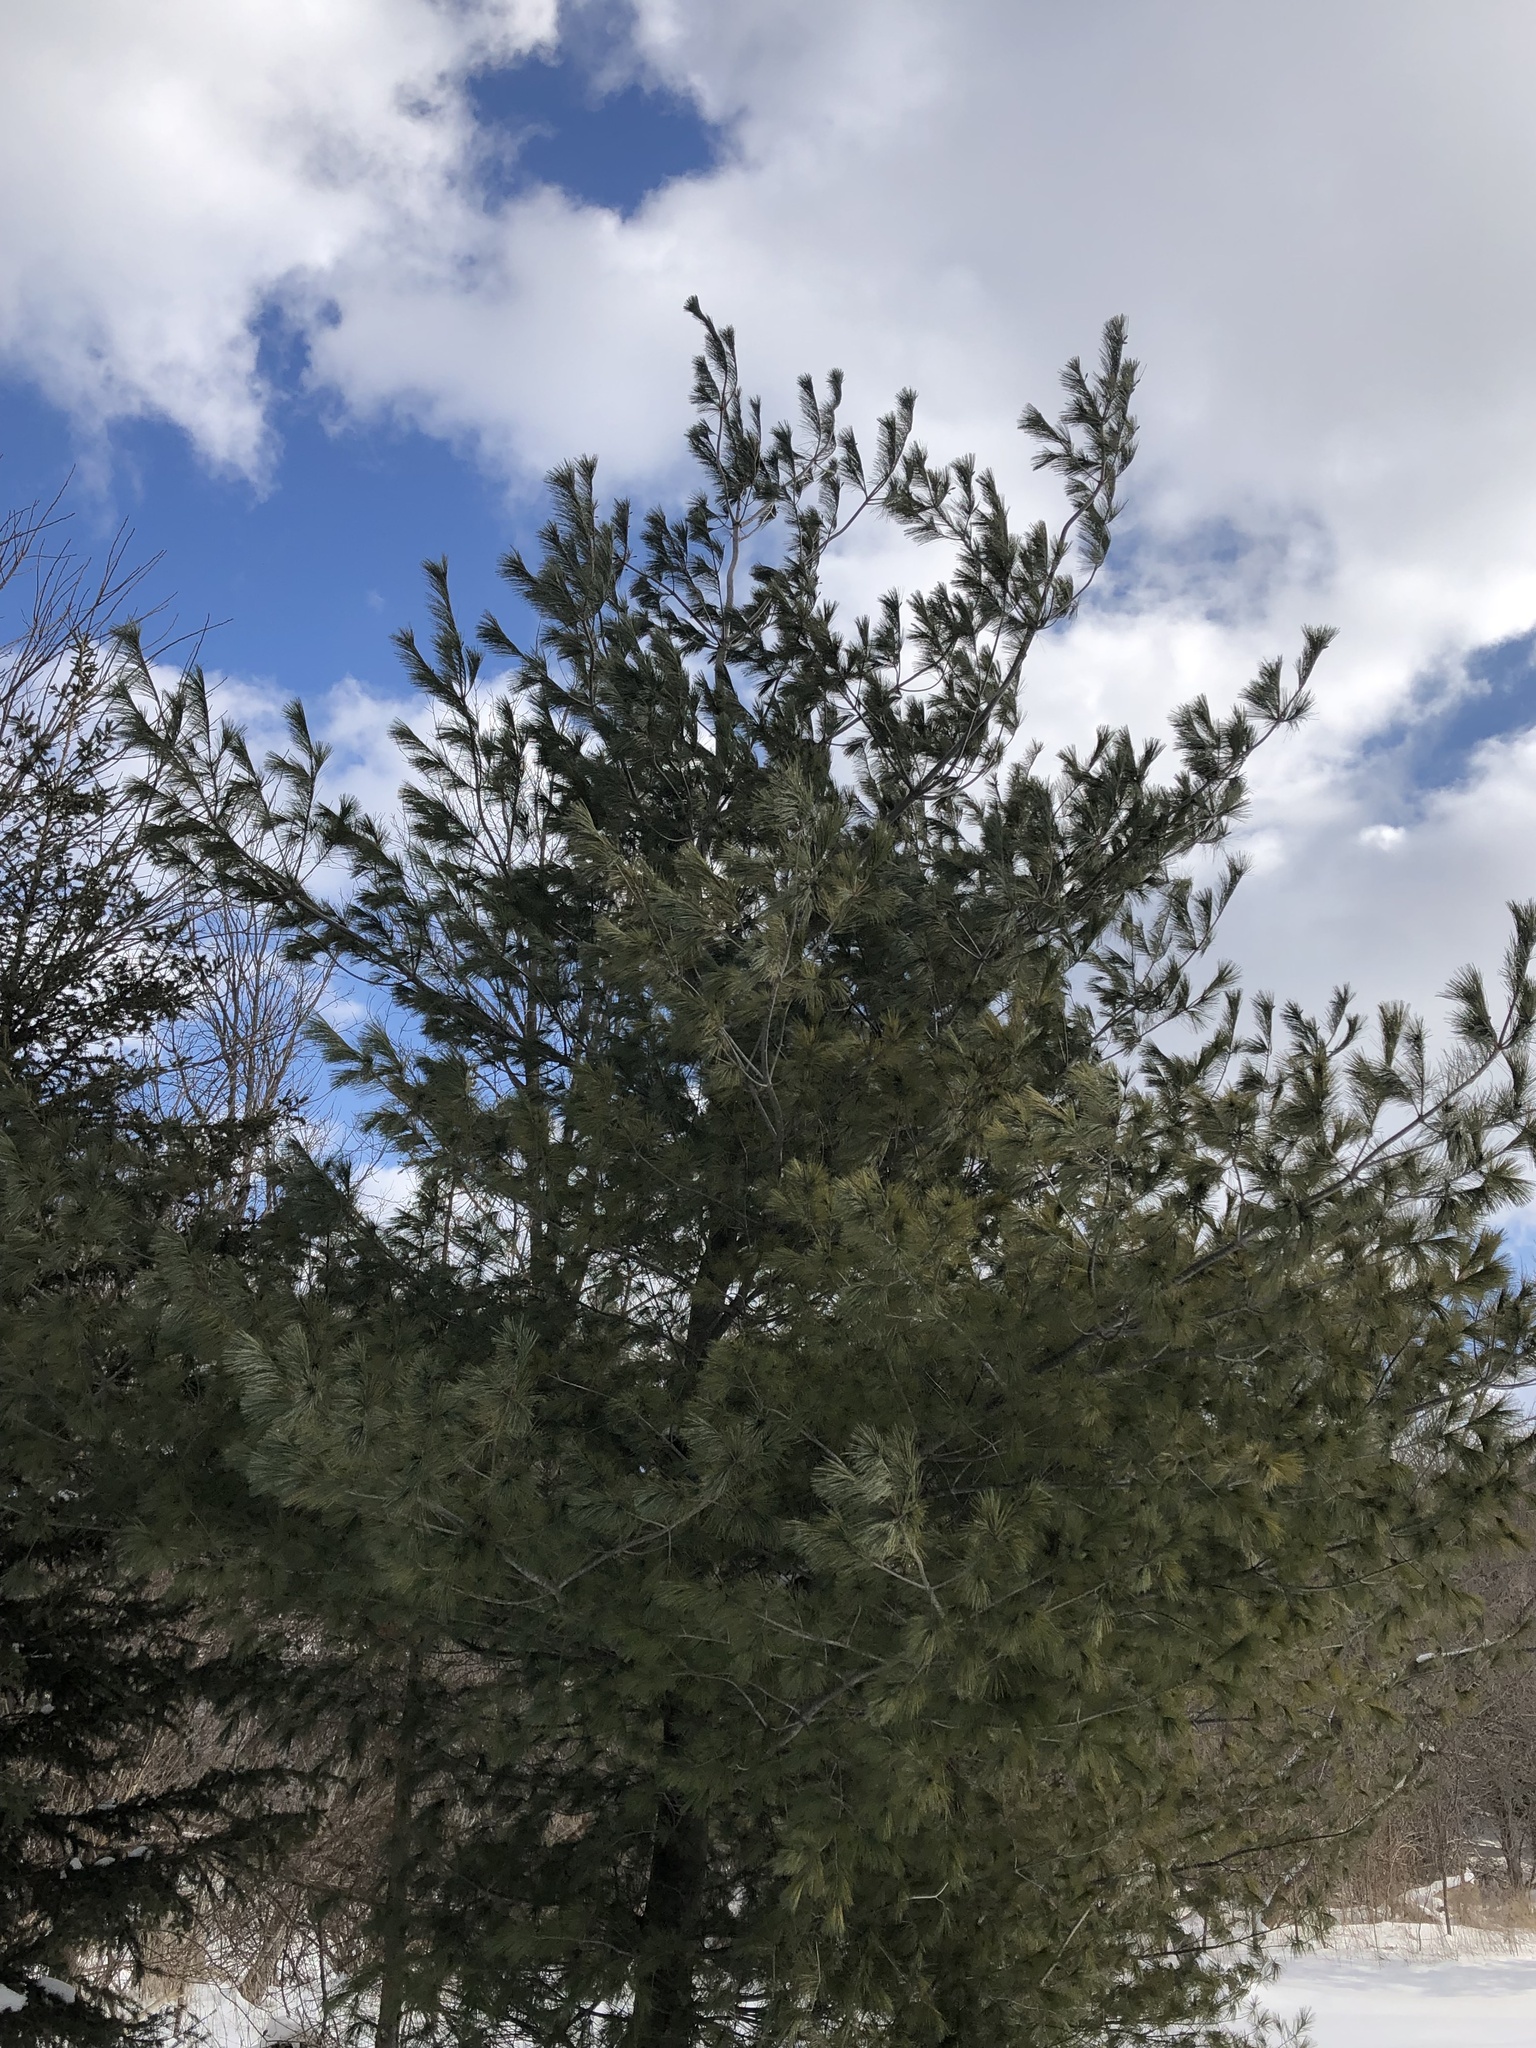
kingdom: Plantae
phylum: Tracheophyta
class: Pinopsida
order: Pinales
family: Pinaceae
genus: Pinus
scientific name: Pinus strobus
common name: Weymouth pine
